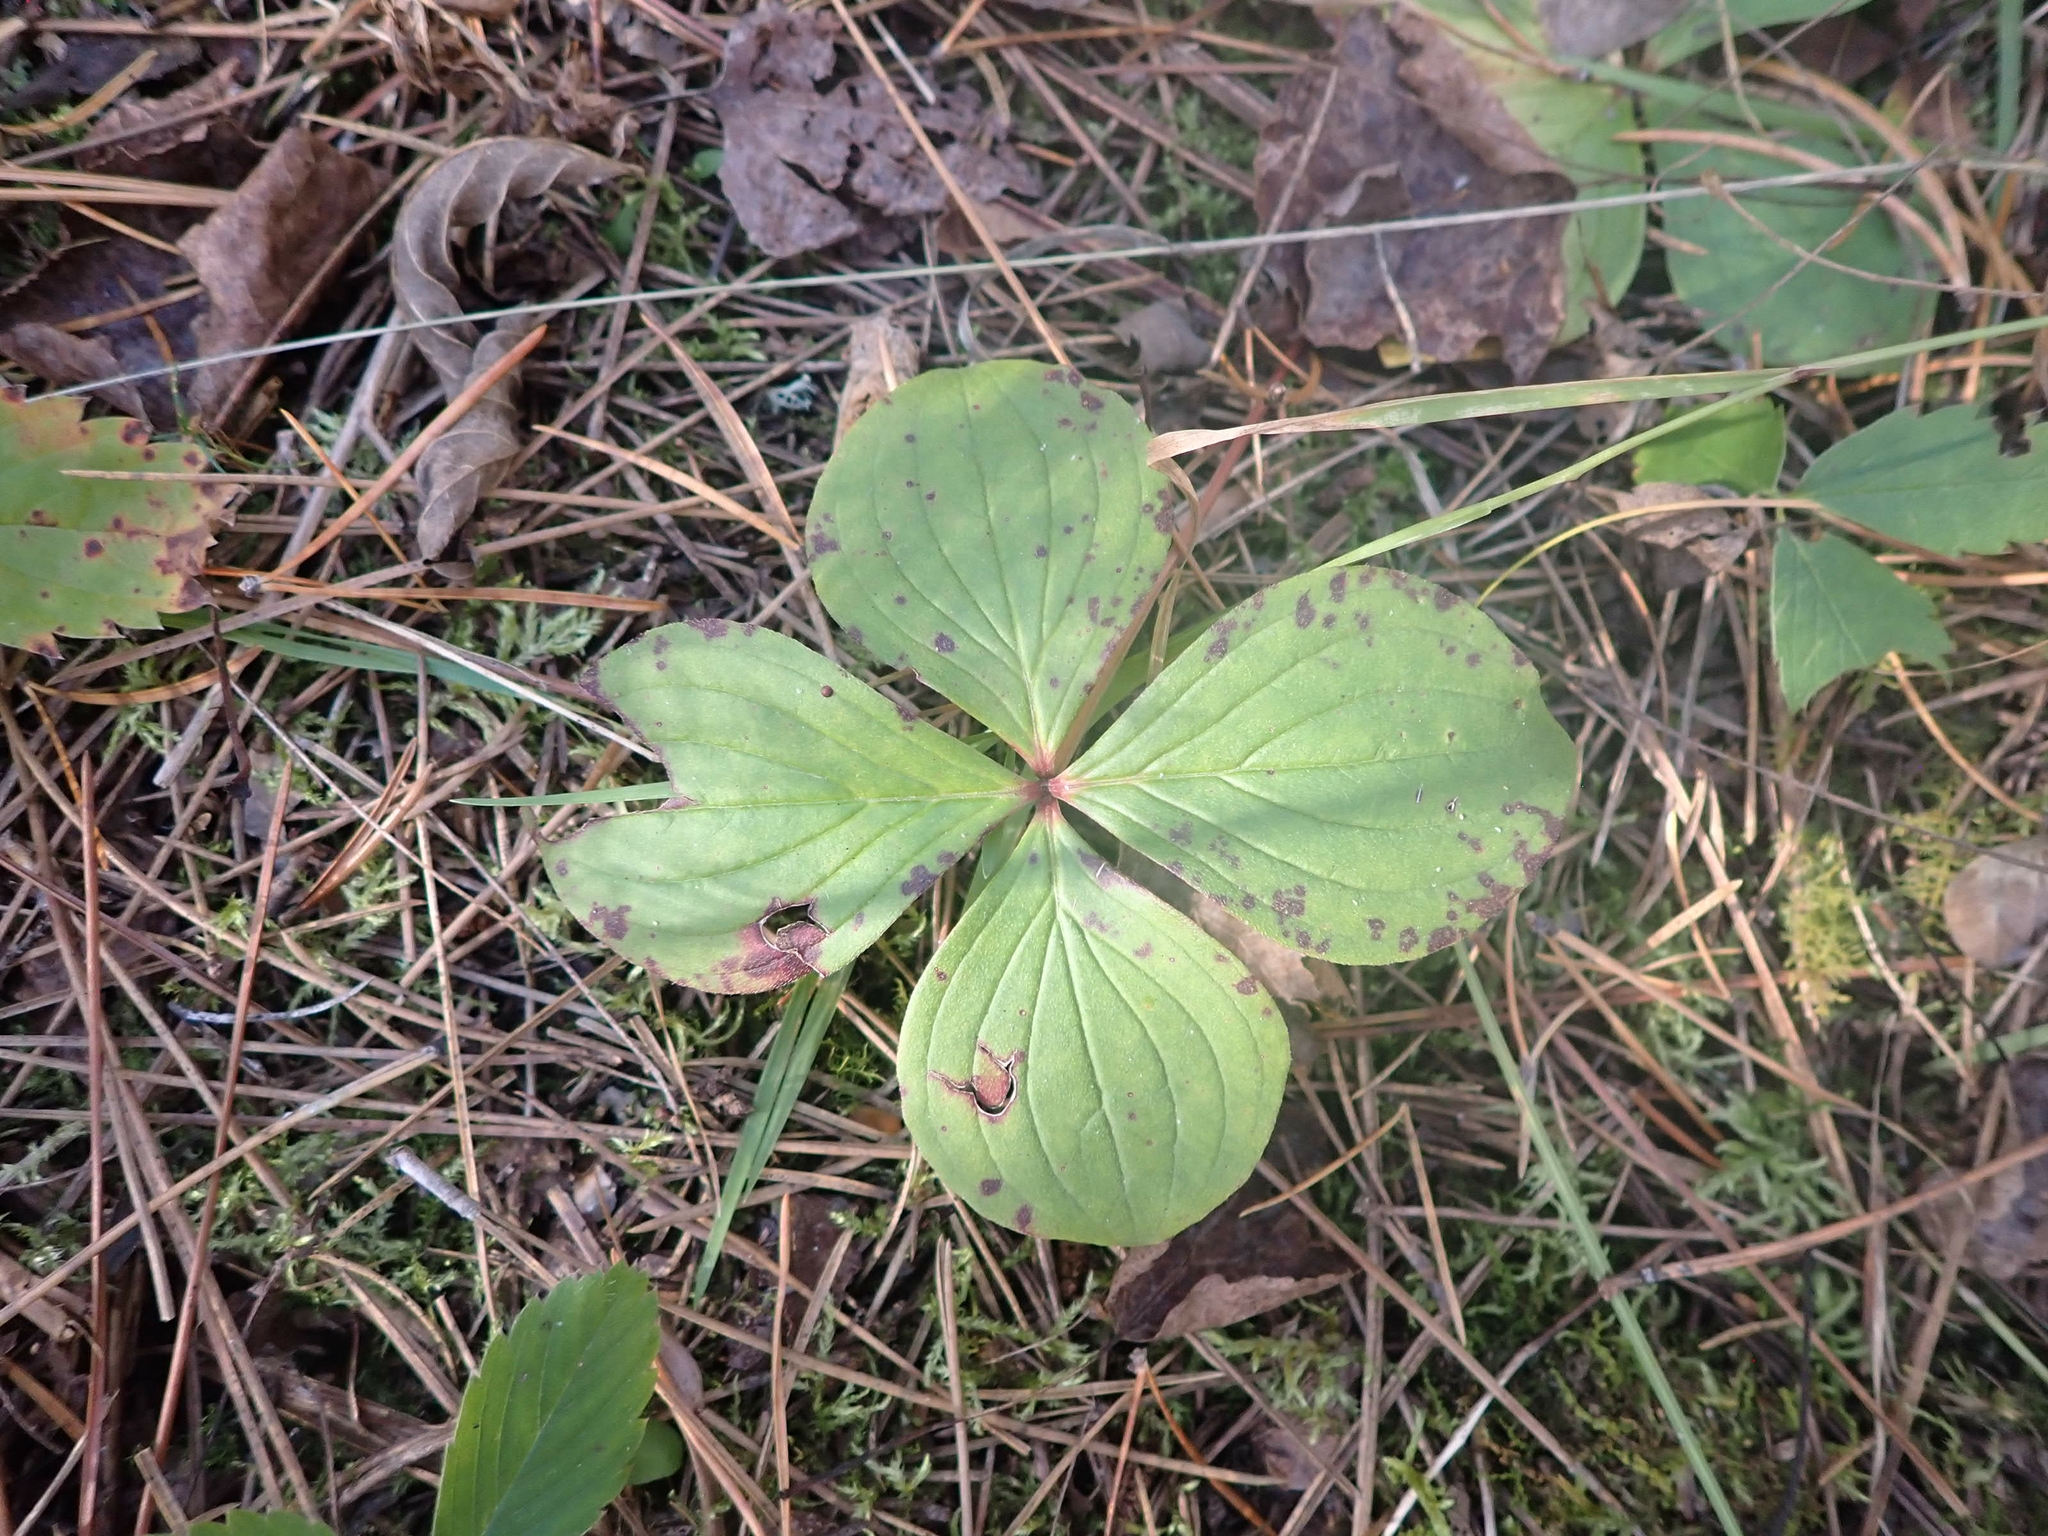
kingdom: Plantae
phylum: Tracheophyta
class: Magnoliopsida
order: Cornales
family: Cornaceae
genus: Cornus
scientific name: Cornus canadensis
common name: Creeping dogwood
